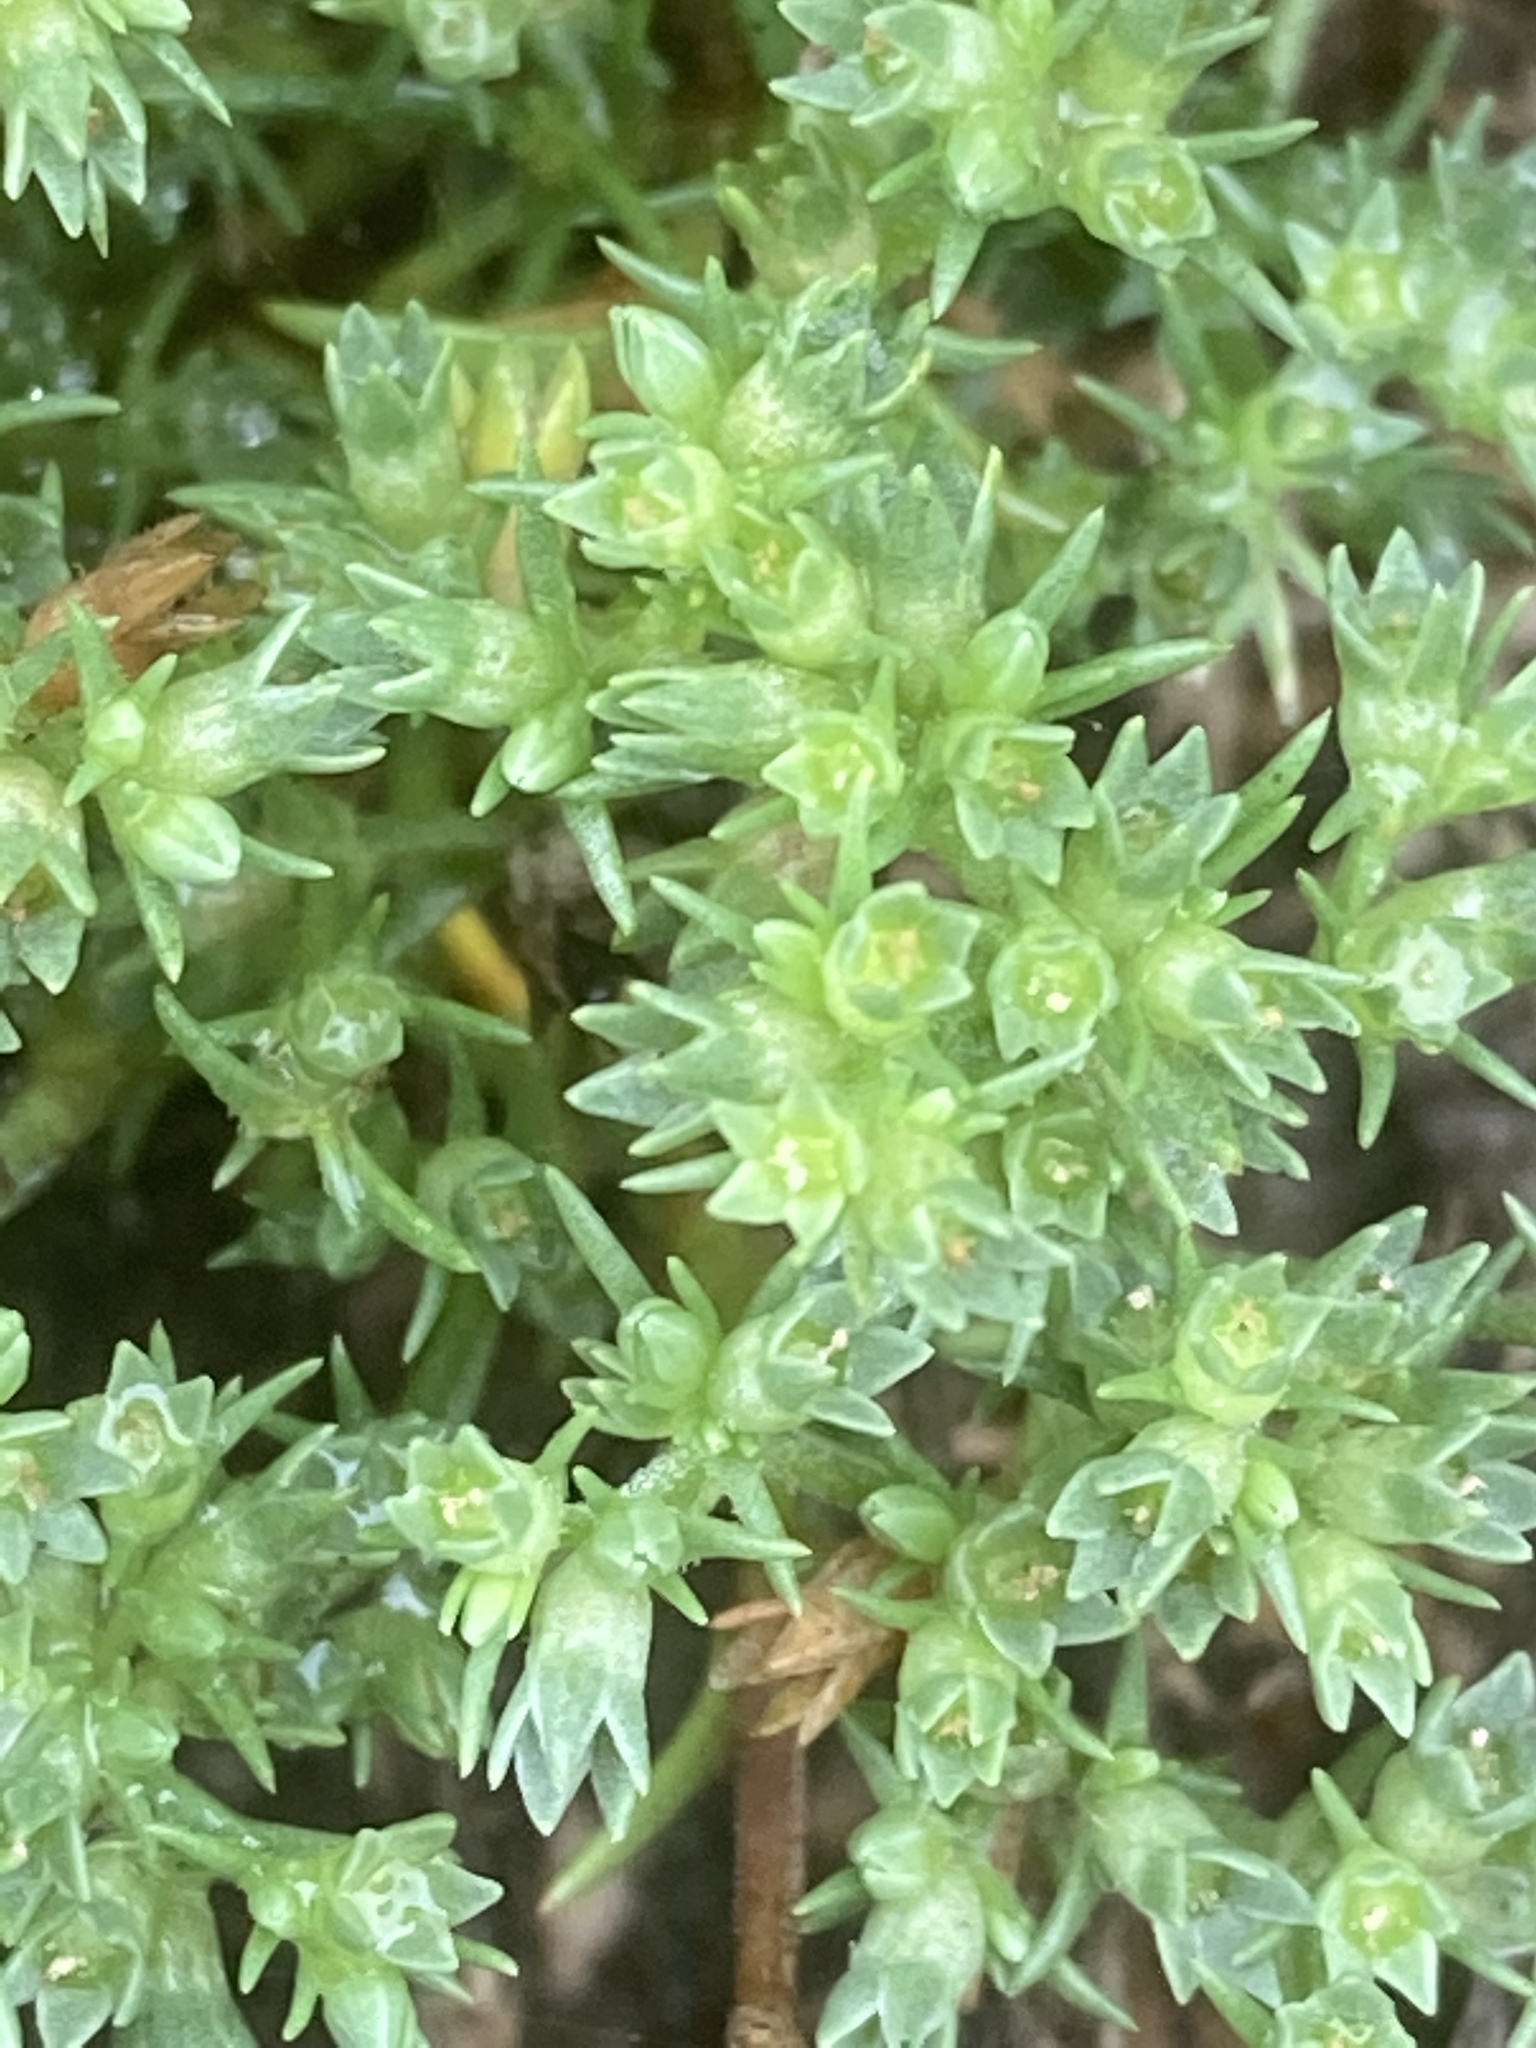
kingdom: Plantae
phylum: Tracheophyta
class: Magnoliopsida
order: Caryophyllales
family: Caryophyllaceae
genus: Scleranthus
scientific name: Scleranthus annuus
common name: Annual knawel
